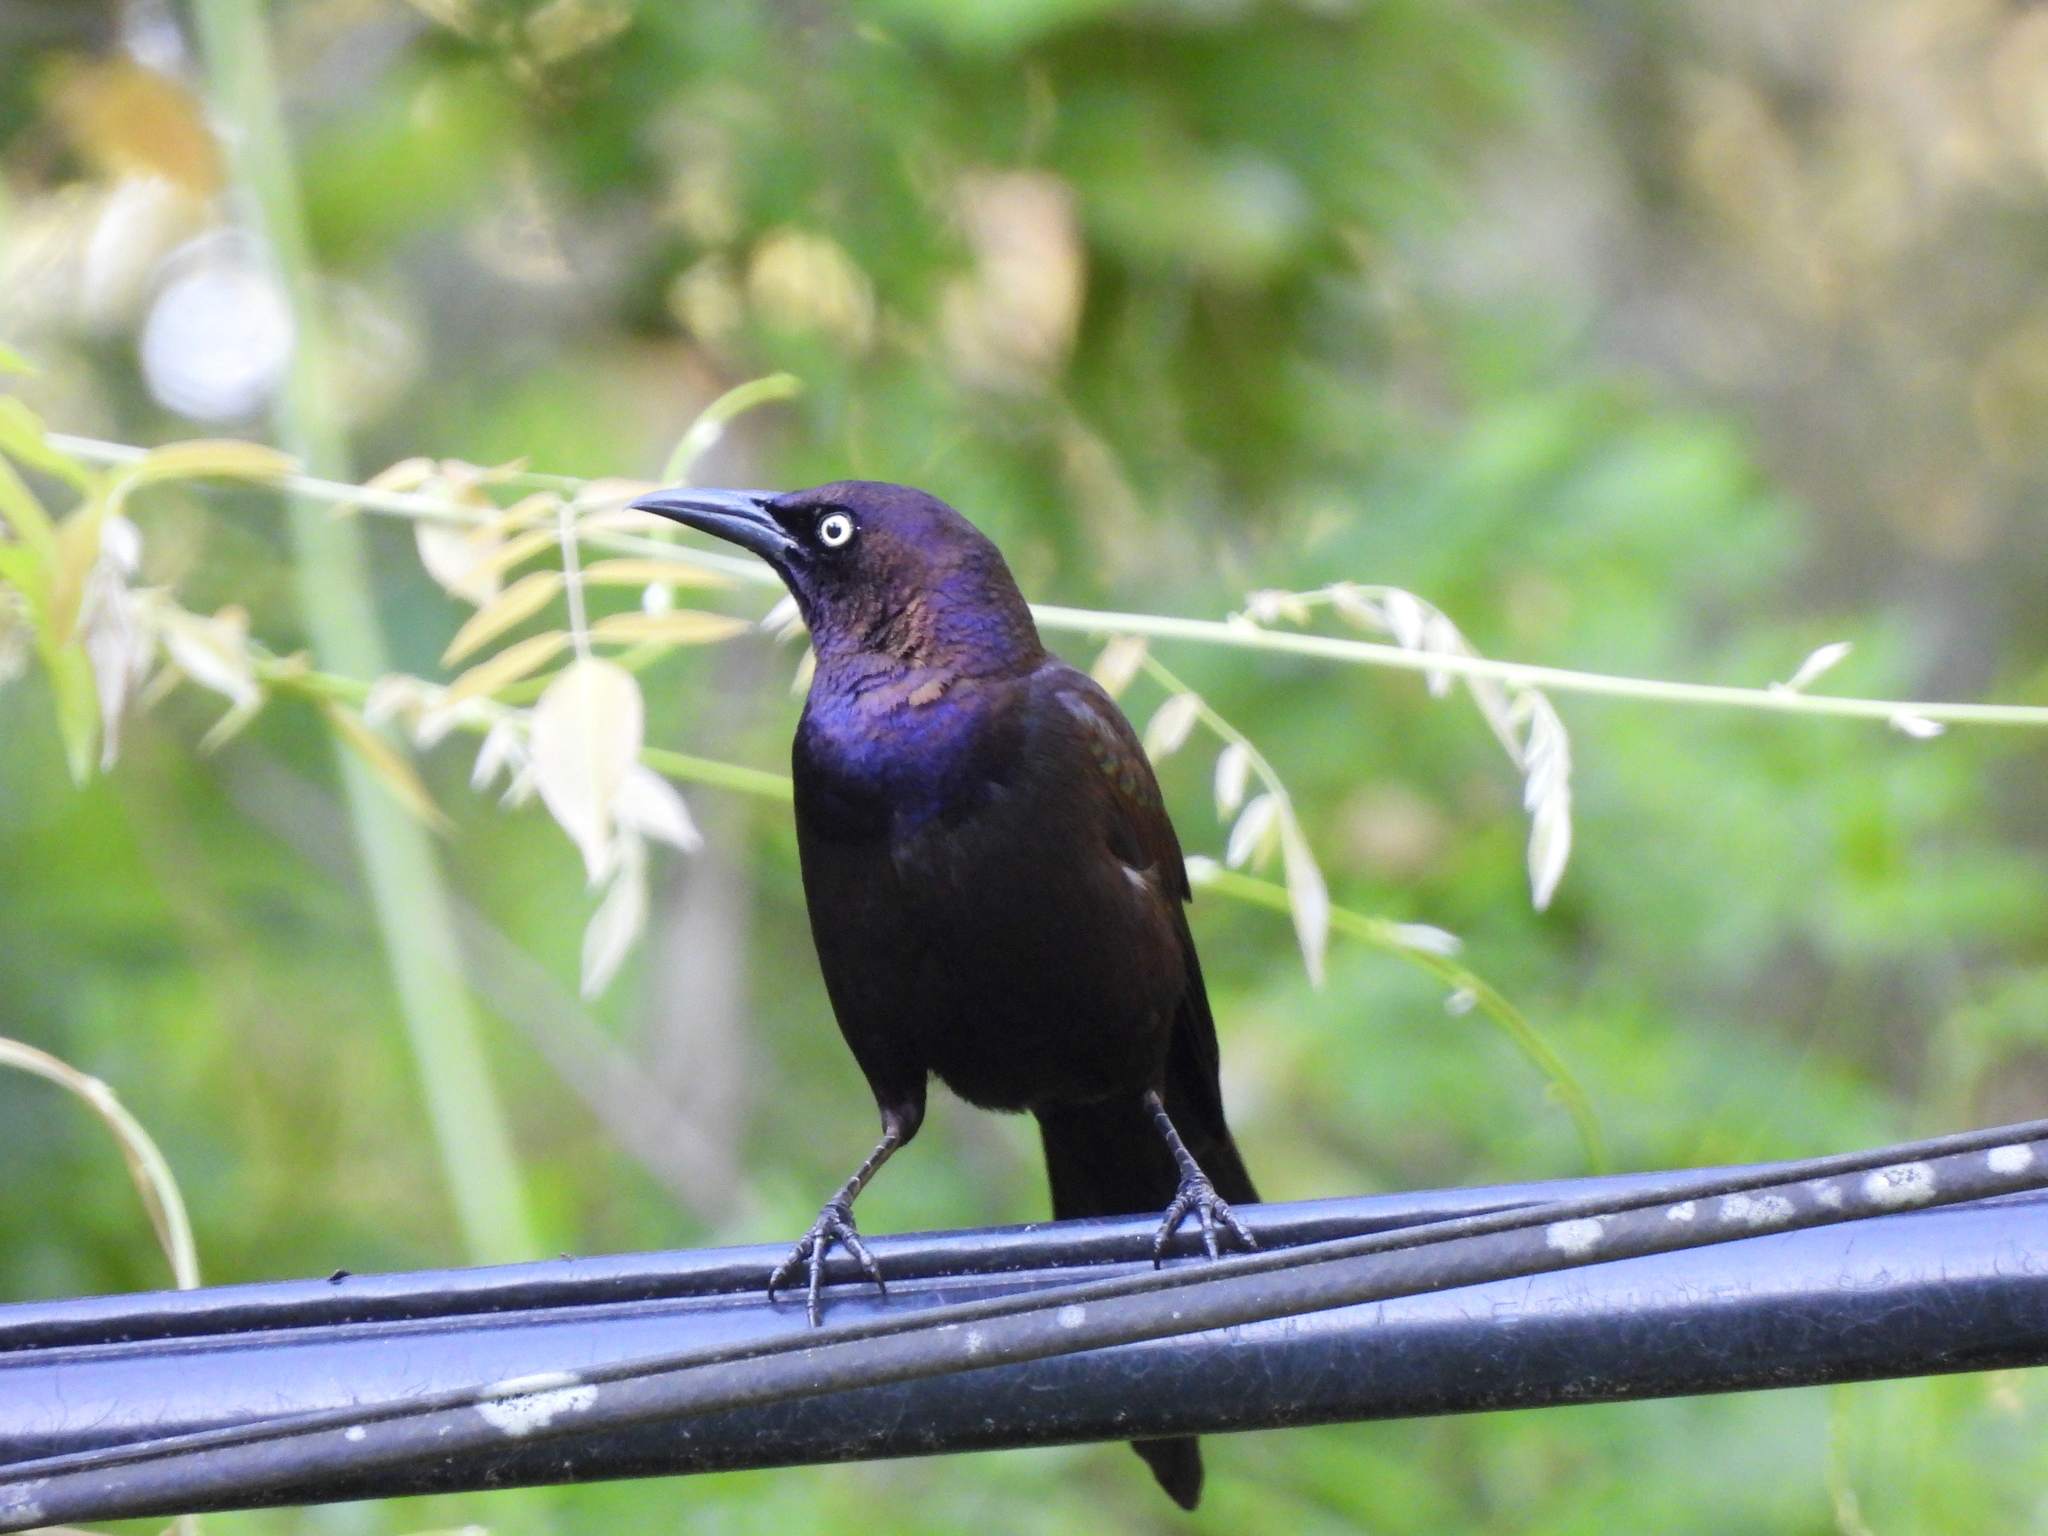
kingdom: Animalia
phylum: Chordata
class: Aves
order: Passeriformes
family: Icteridae
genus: Quiscalus
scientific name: Quiscalus quiscula
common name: Common grackle
